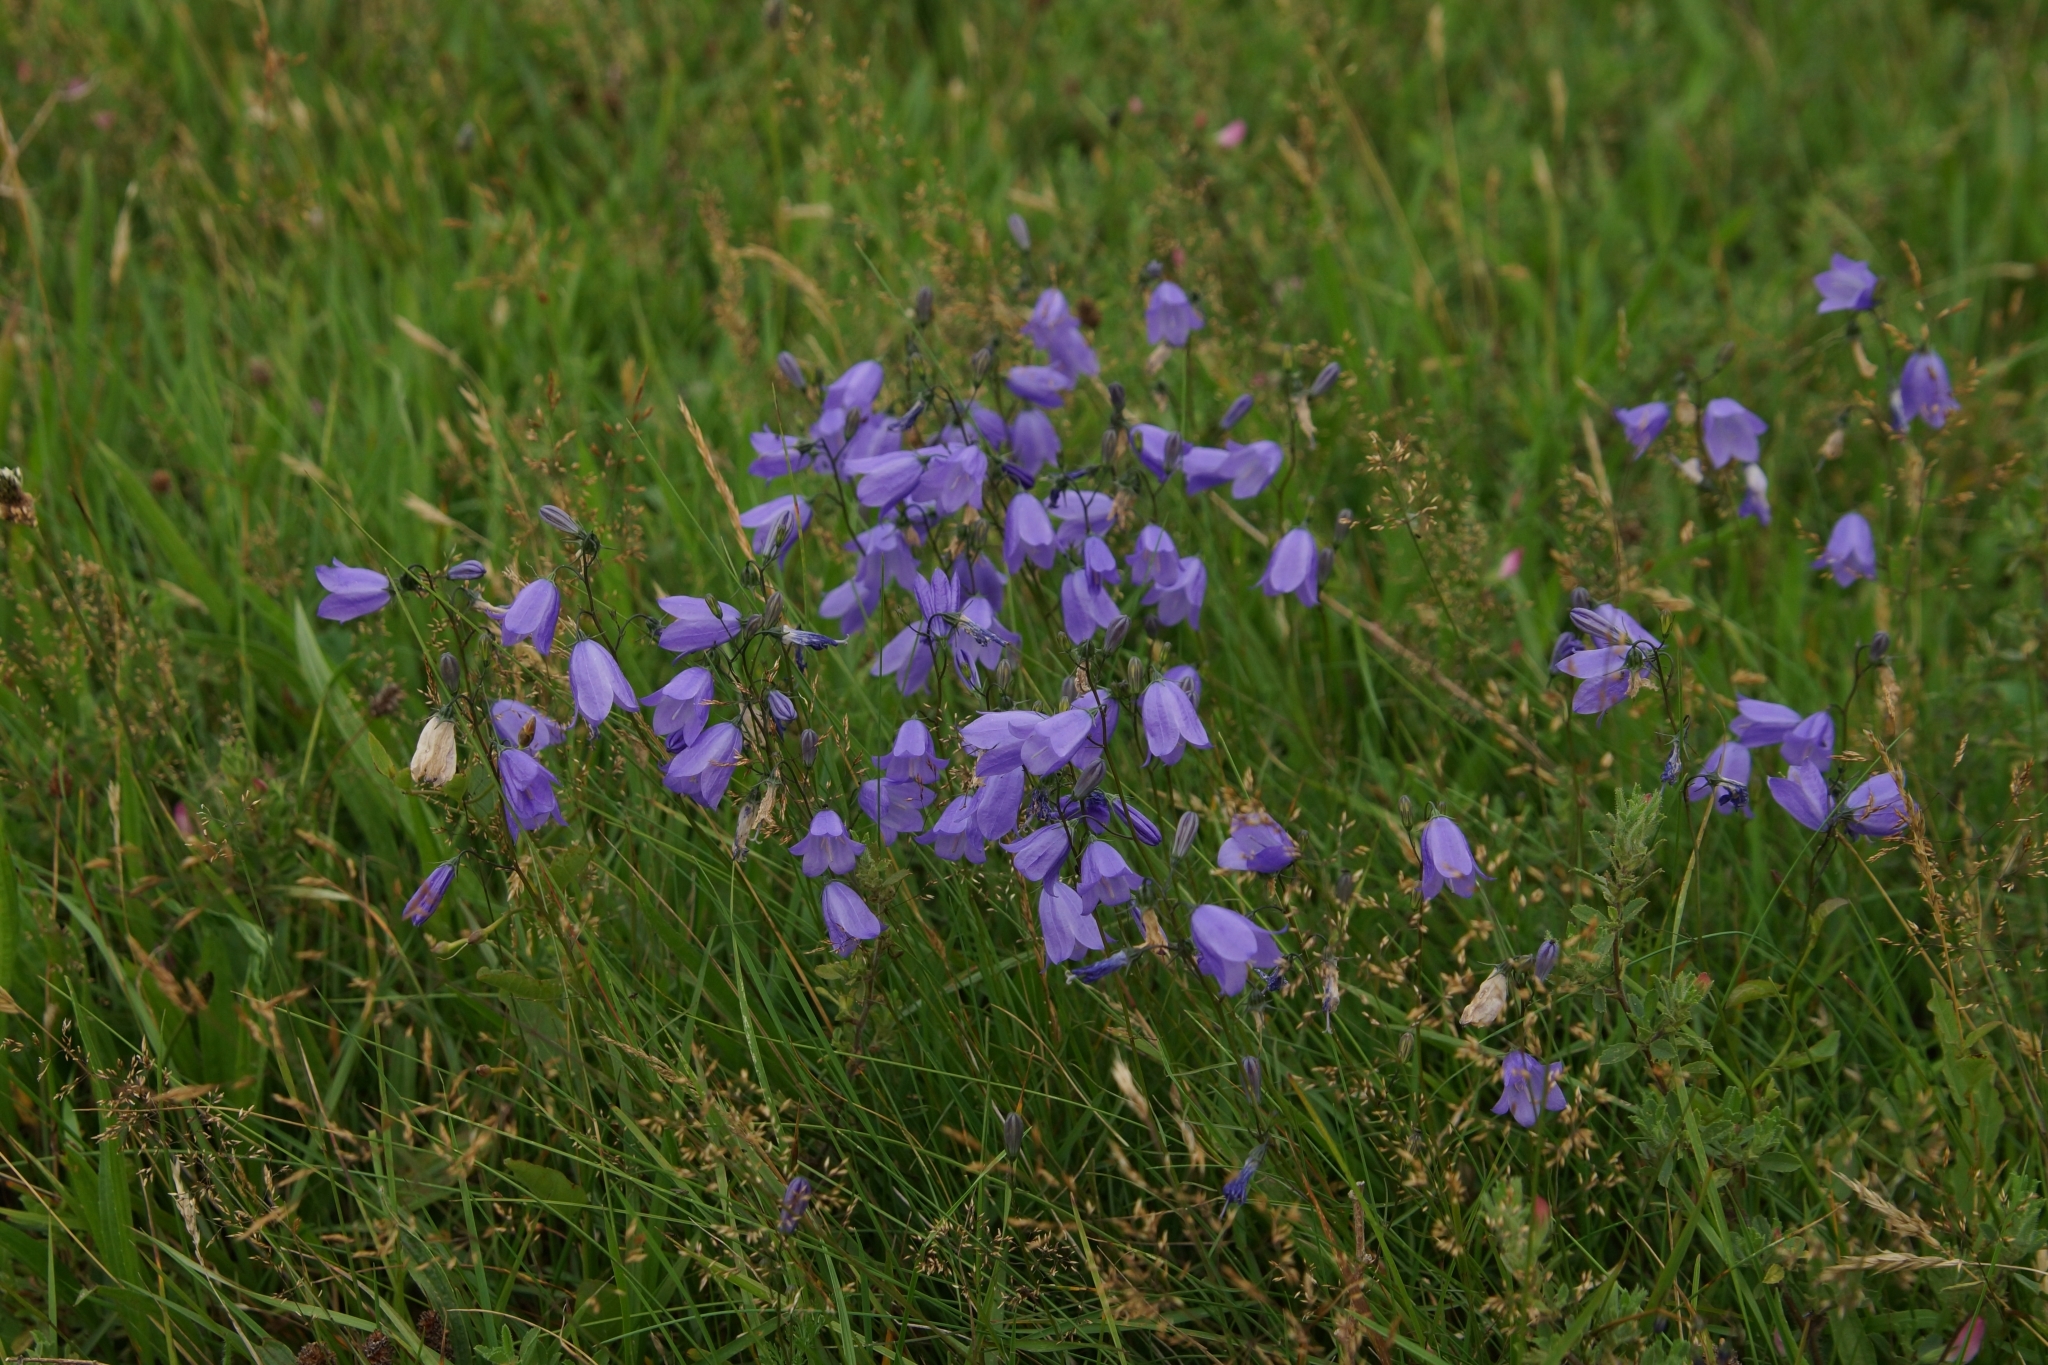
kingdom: Plantae
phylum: Tracheophyta
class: Magnoliopsida
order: Asterales
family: Campanulaceae
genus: Campanula
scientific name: Campanula rotundifolia
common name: Harebell
